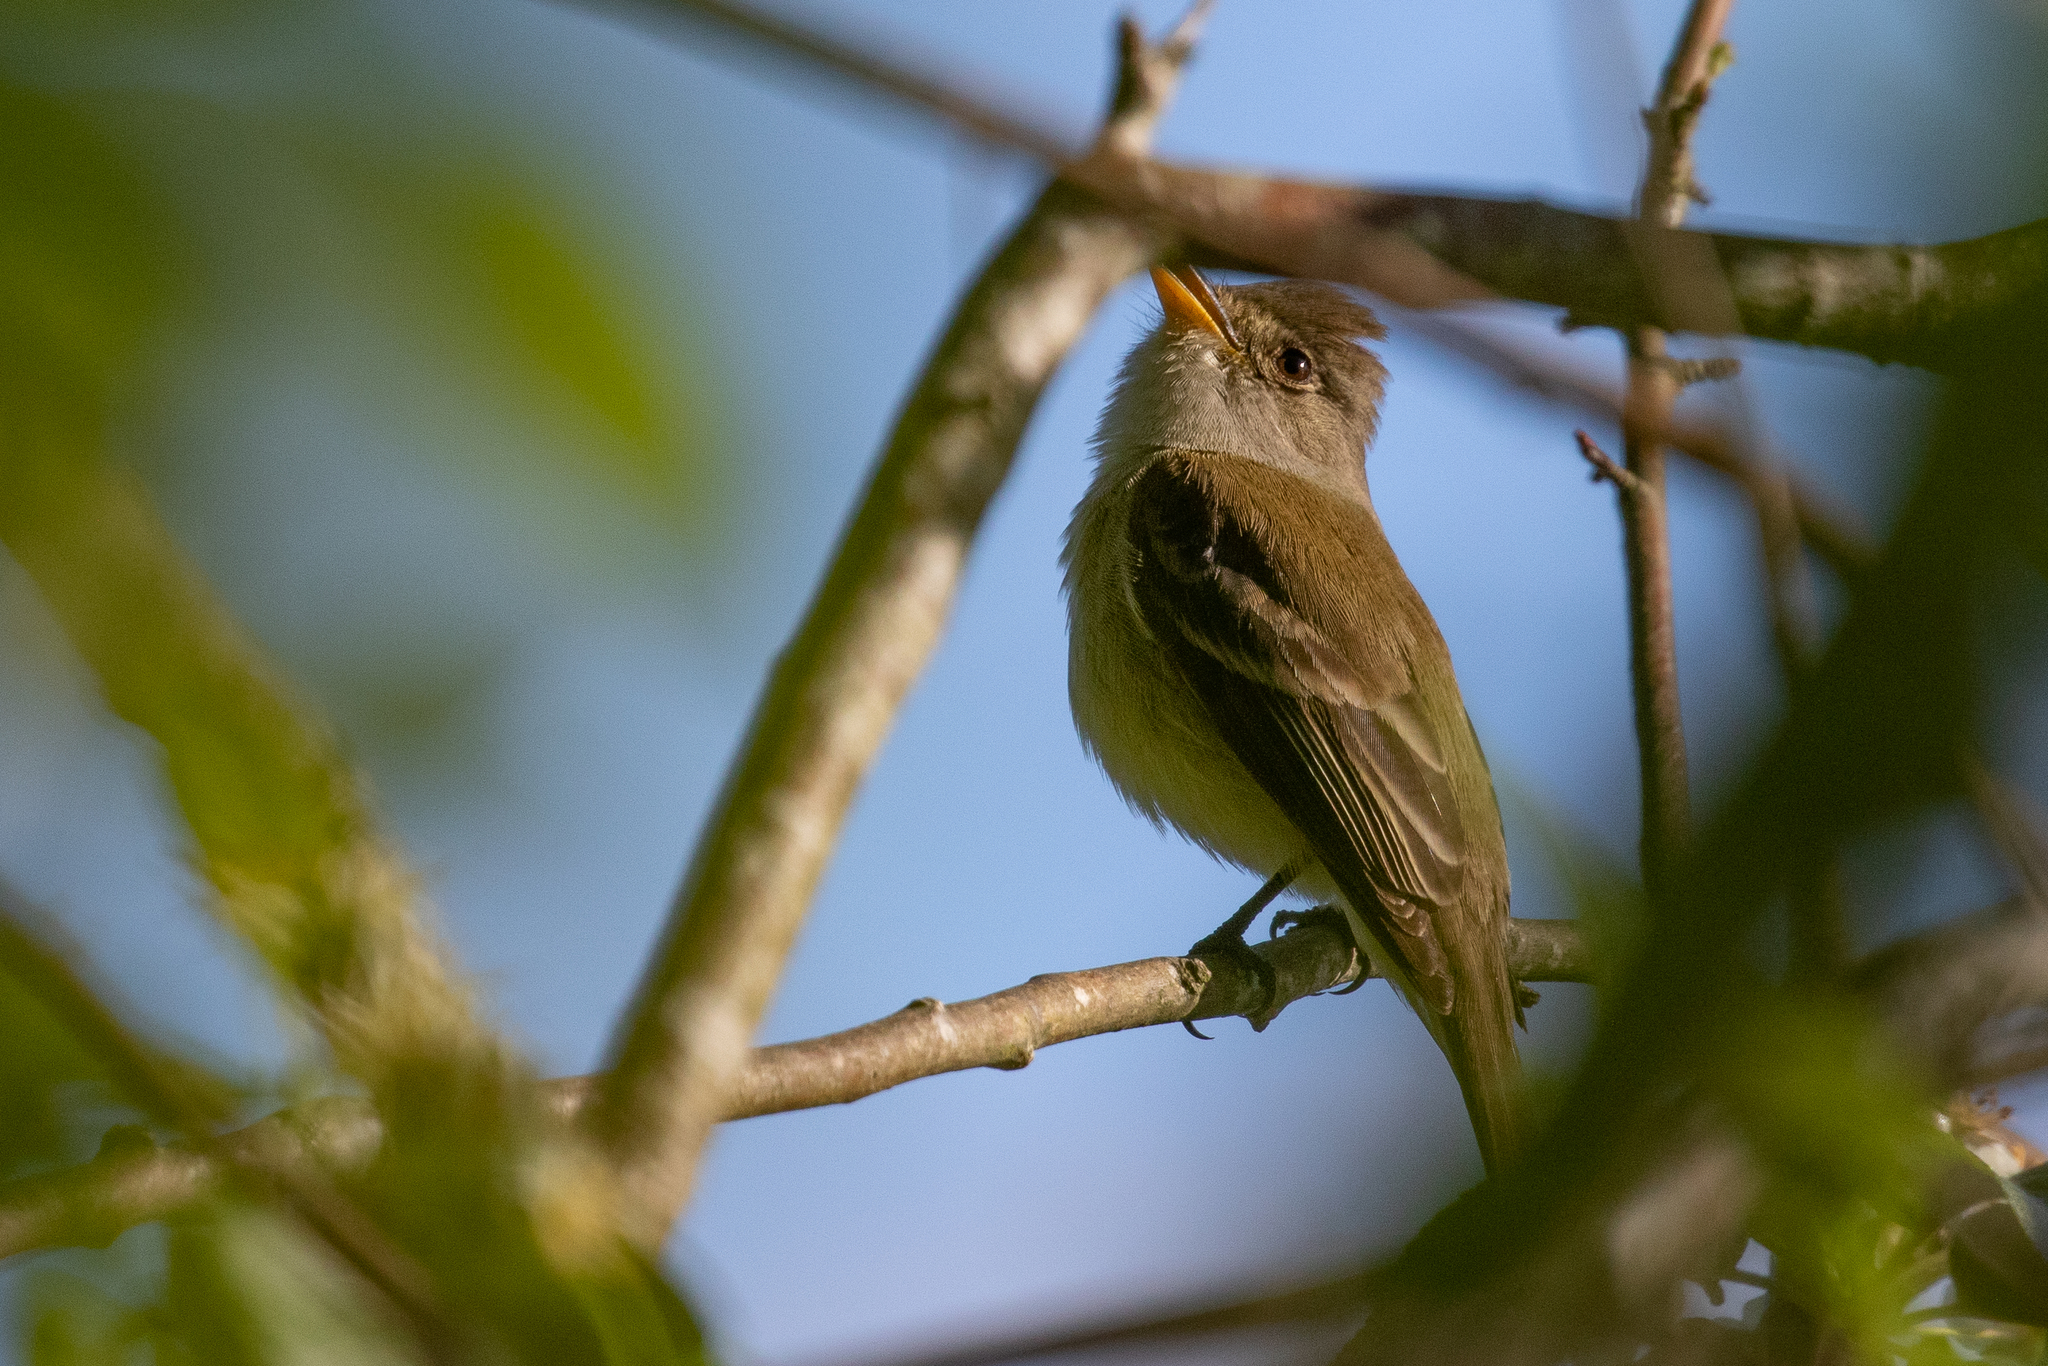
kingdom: Animalia
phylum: Chordata
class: Aves
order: Passeriformes
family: Tyrannidae
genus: Empidonax
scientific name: Empidonax traillii
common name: Willow flycatcher
